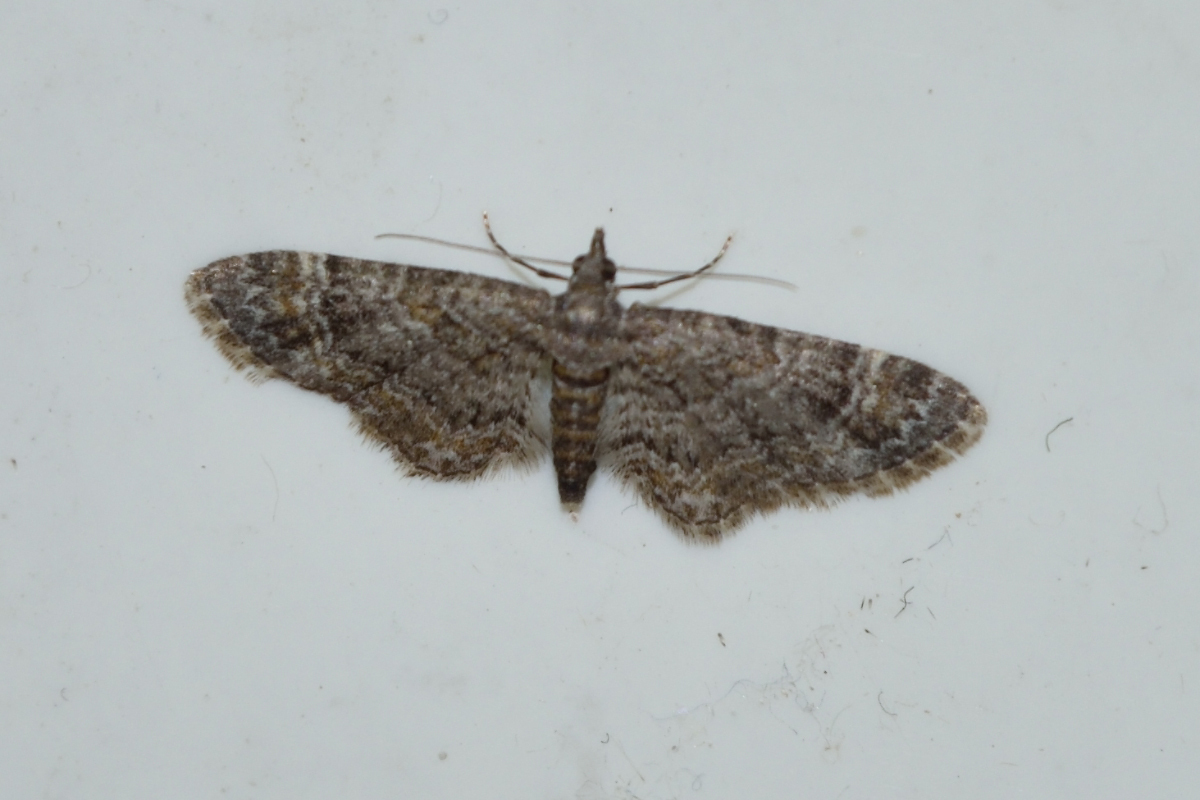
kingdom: Animalia
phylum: Arthropoda
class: Insecta
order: Lepidoptera
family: Geometridae
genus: Gymnoscelis
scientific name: Gymnoscelis rufifasciata
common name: Double-striped pug
